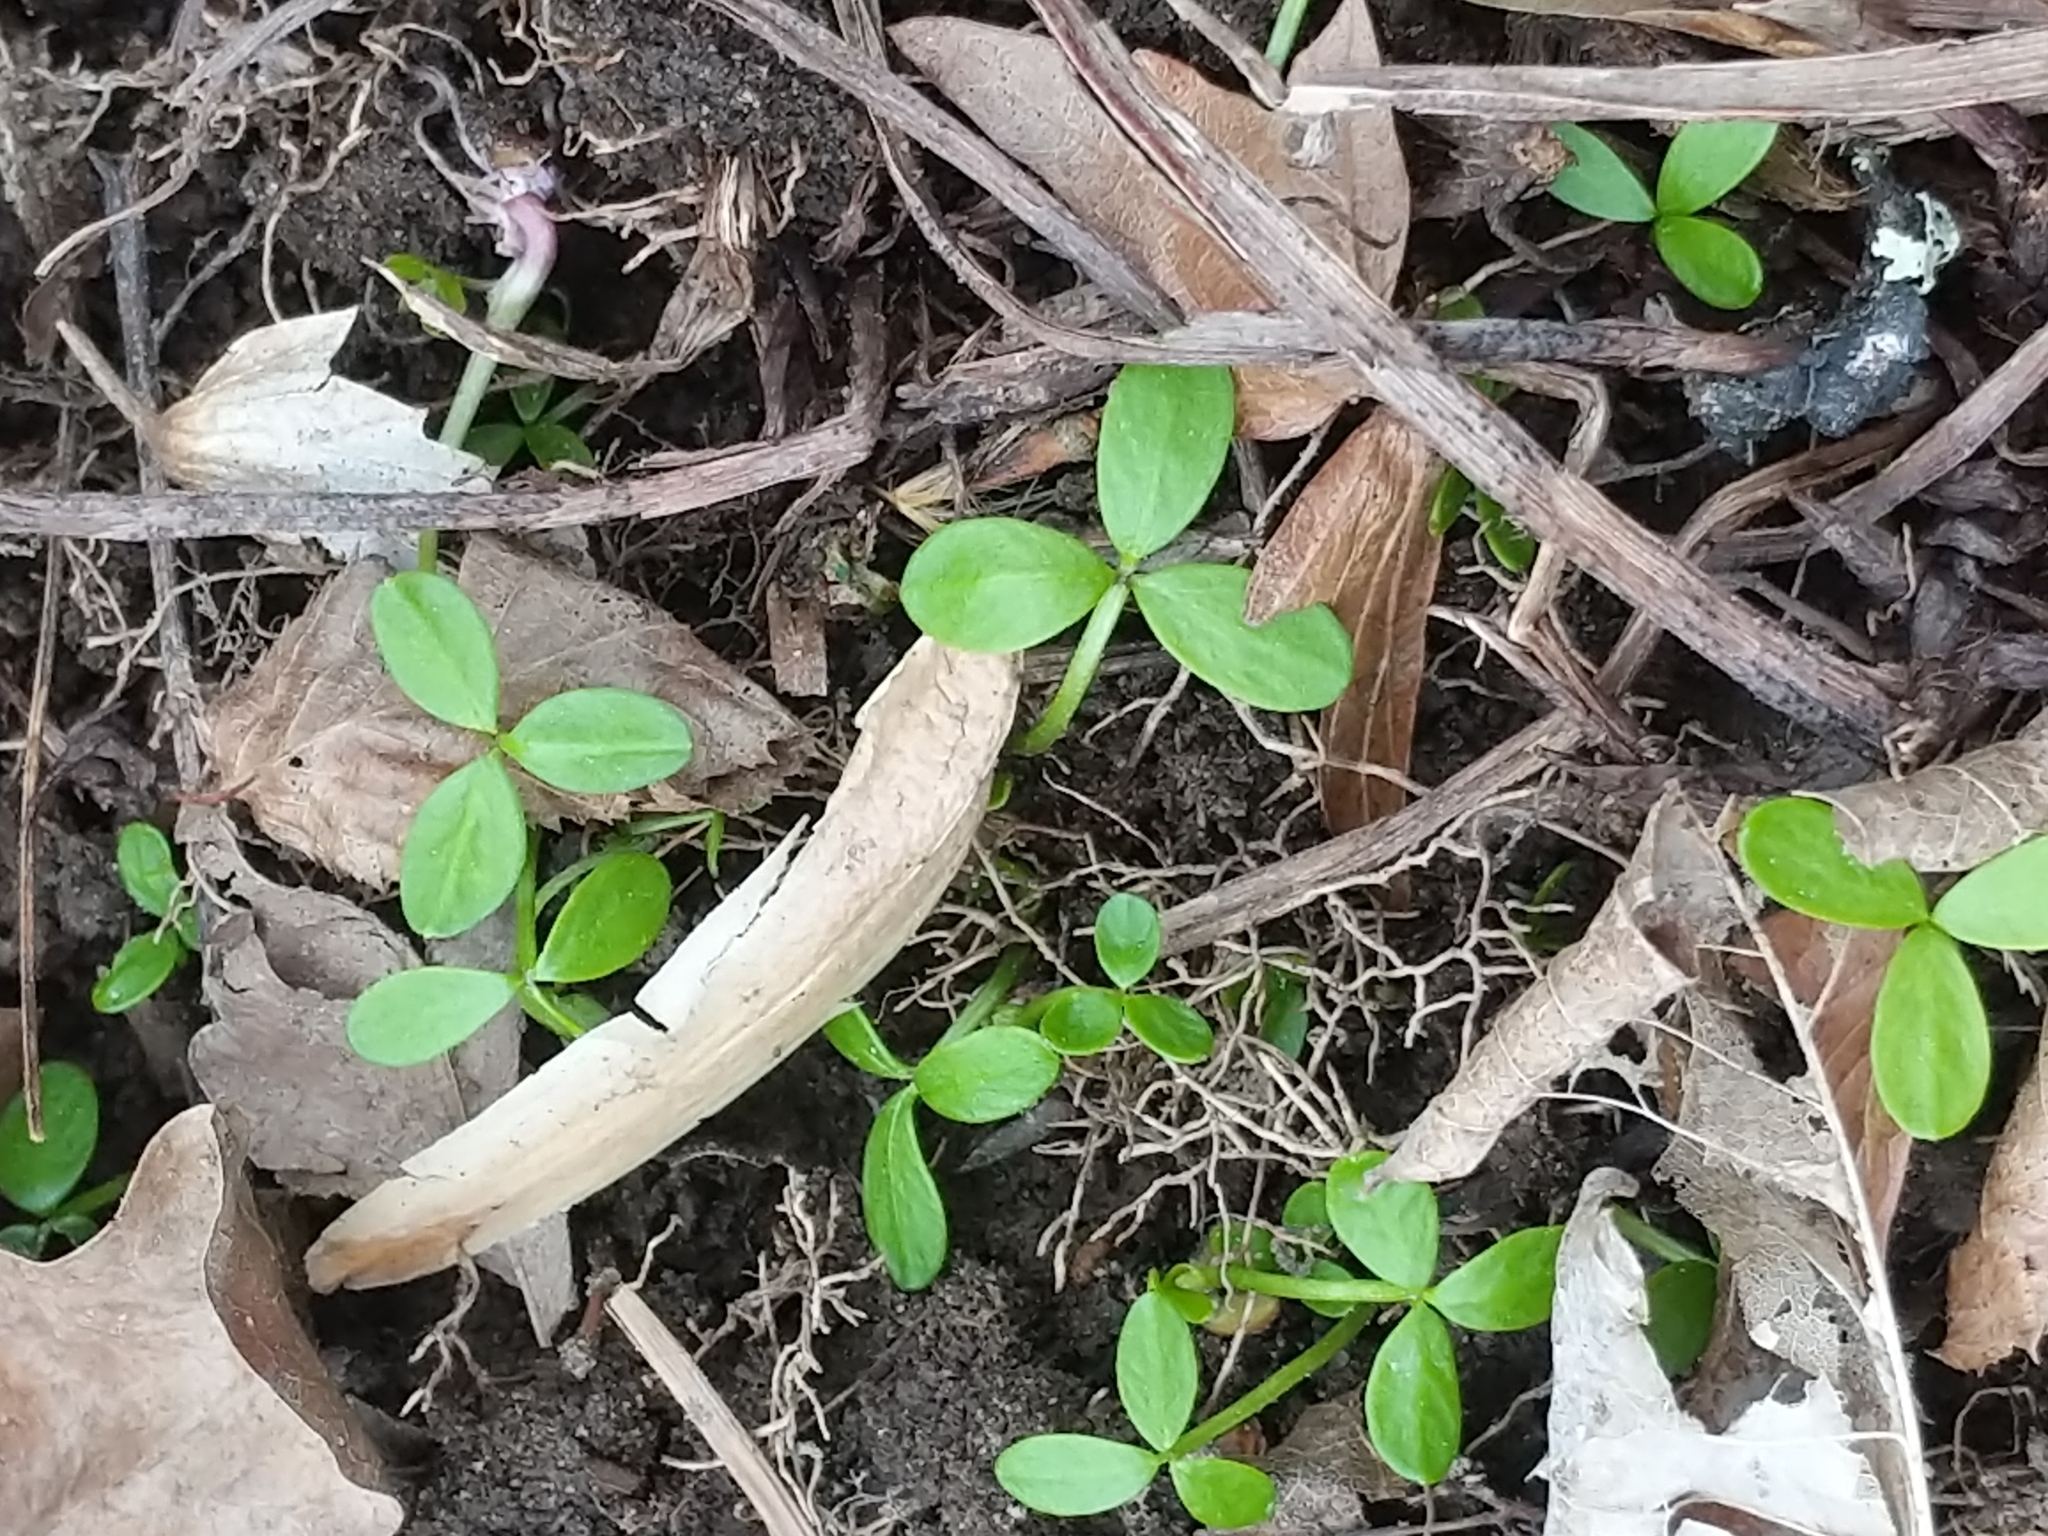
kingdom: Plantae
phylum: Tracheophyta
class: Magnoliopsida
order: Brassicales
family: Limnanthaceae
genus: Floerkea
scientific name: Floerkea proserpinacoides
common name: False mermaid
